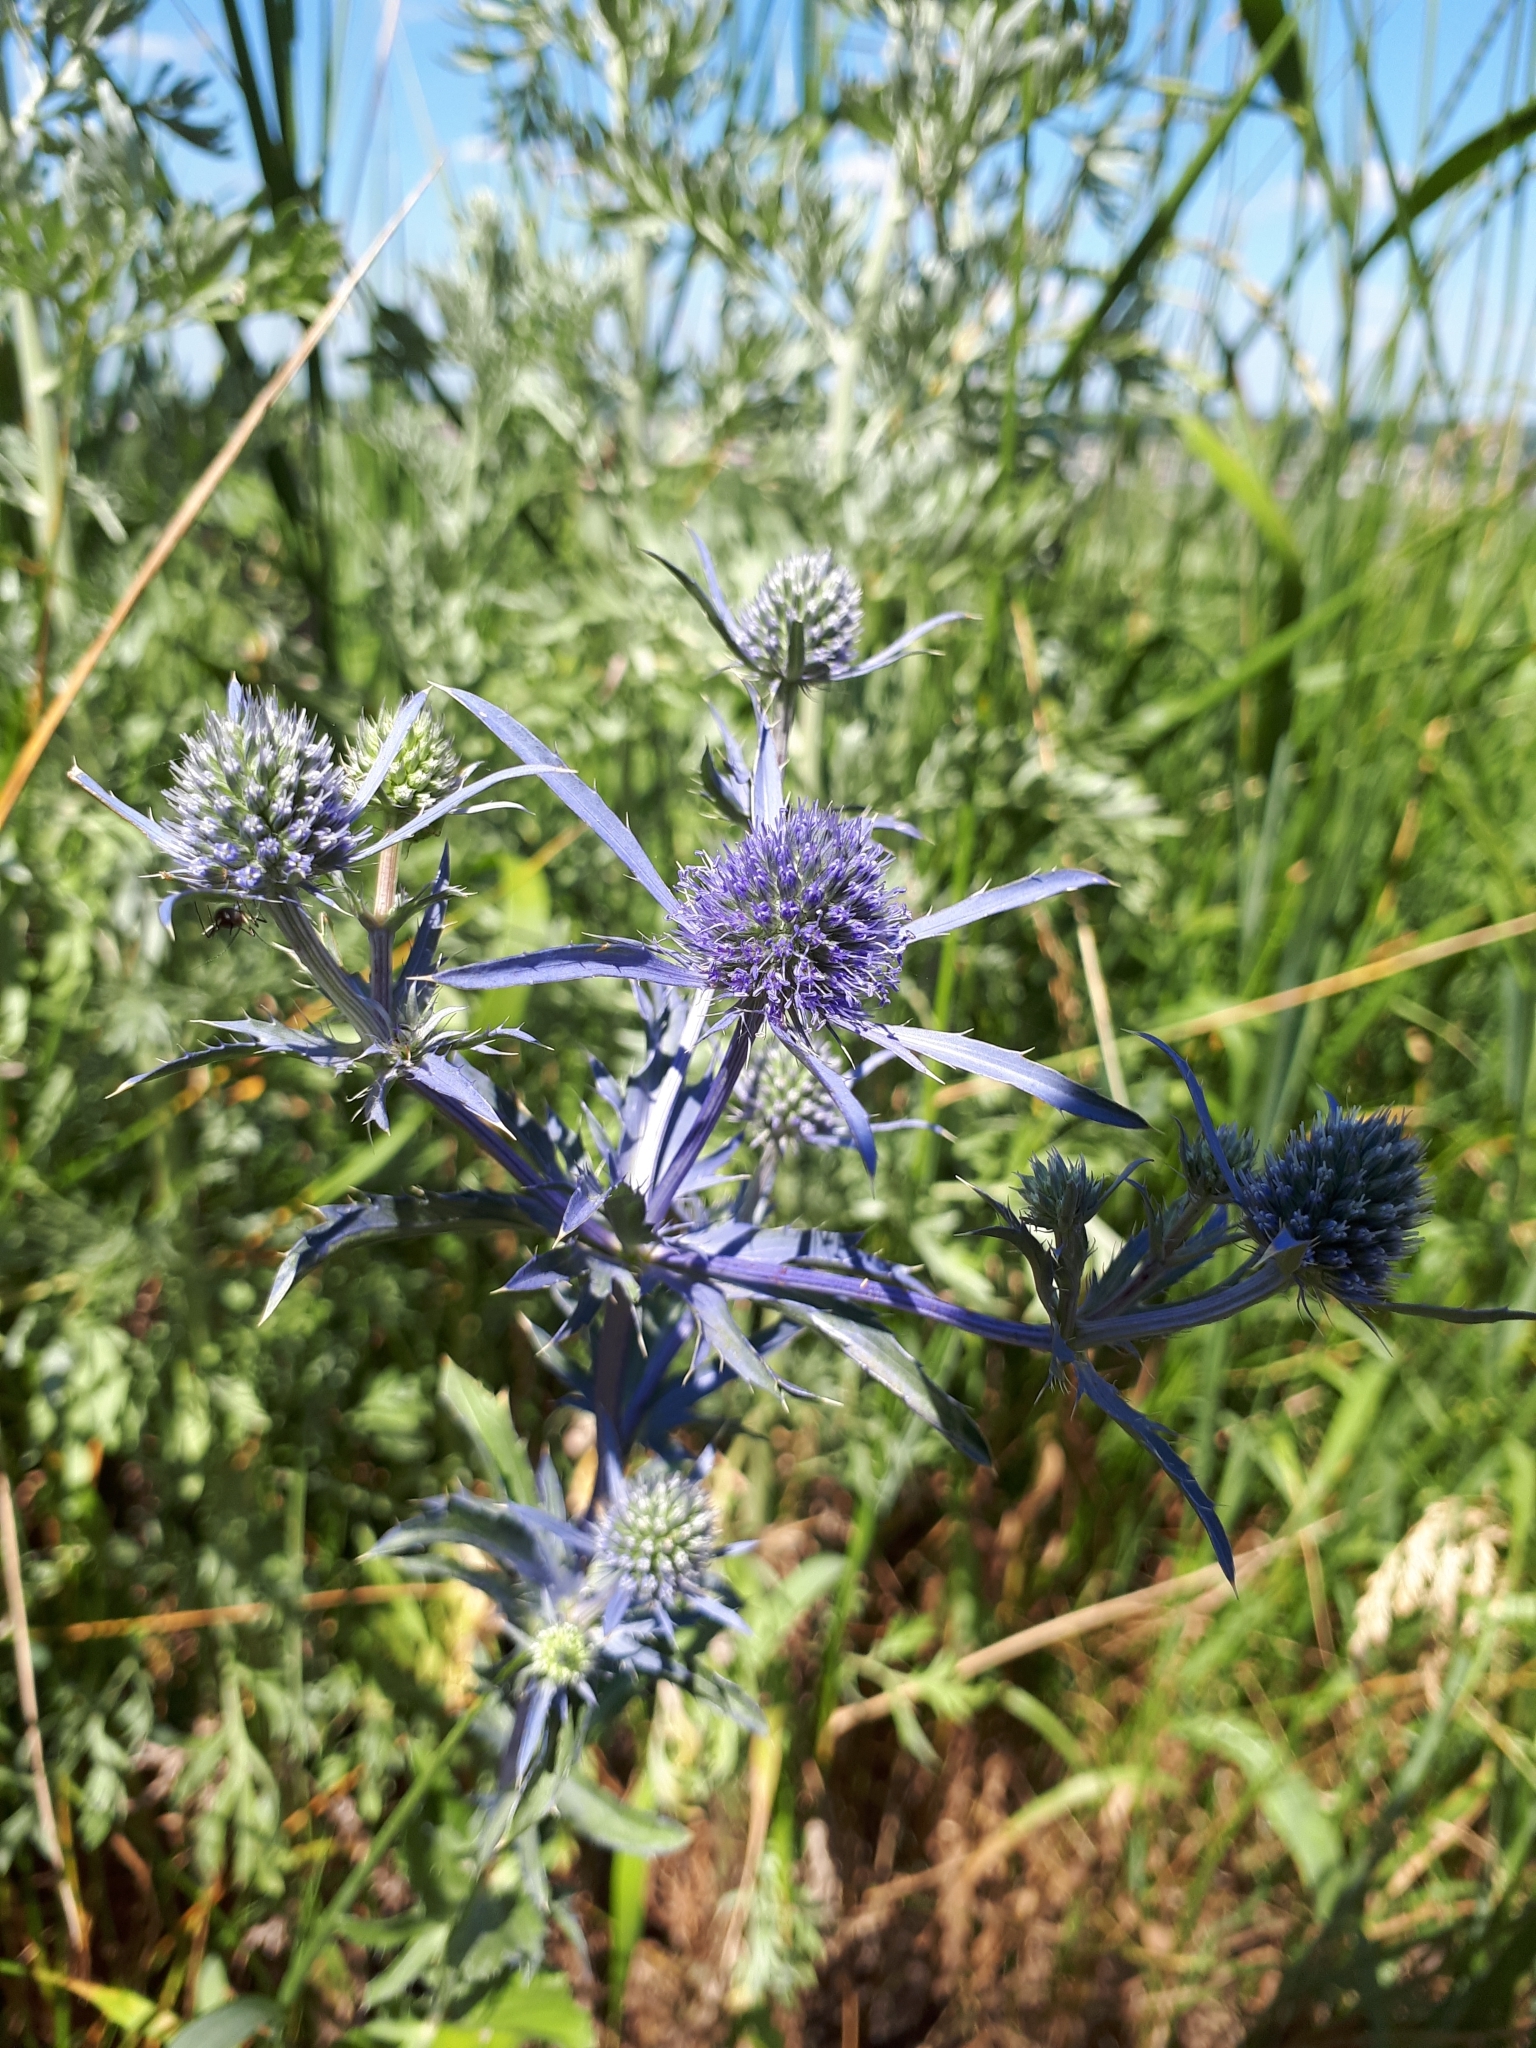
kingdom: Plantae
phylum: Tracheophyta
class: Magnoliopsida
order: Apiales
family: Apiaceae
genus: Eryngium
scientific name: Eryngium planum
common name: Blue eryngo
